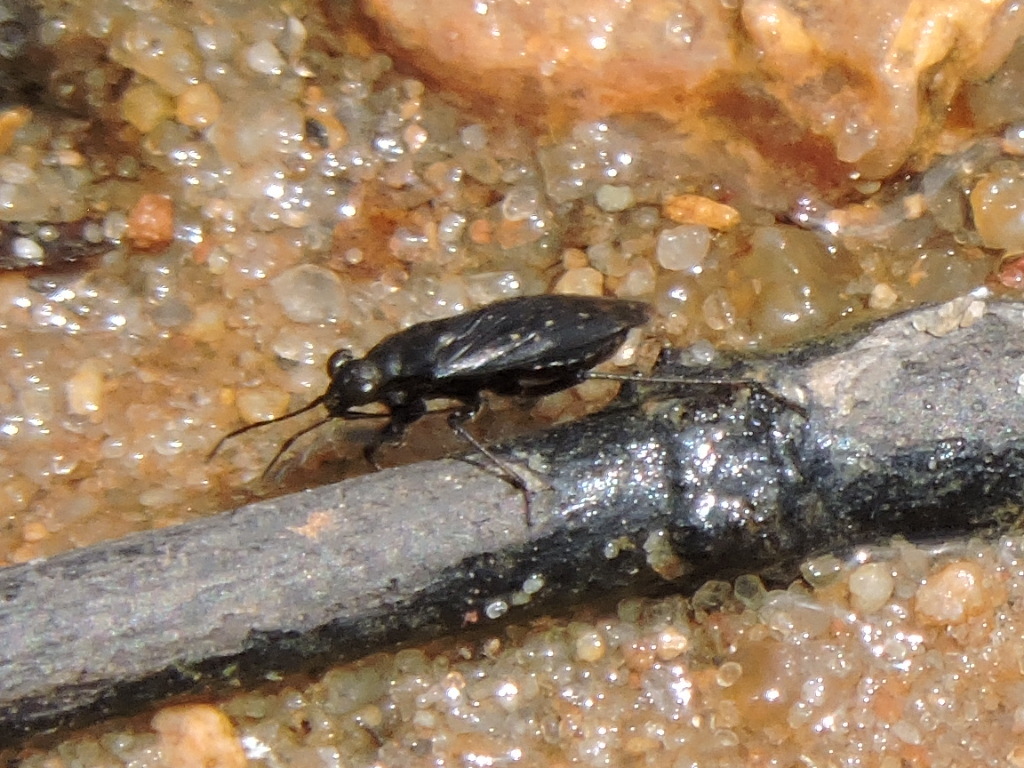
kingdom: Animalia
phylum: Arthropoda
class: Insecta
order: Hemiptera
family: Saldidae
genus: Micracanthia
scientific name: Micracanthia humilis
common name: Shore bug
